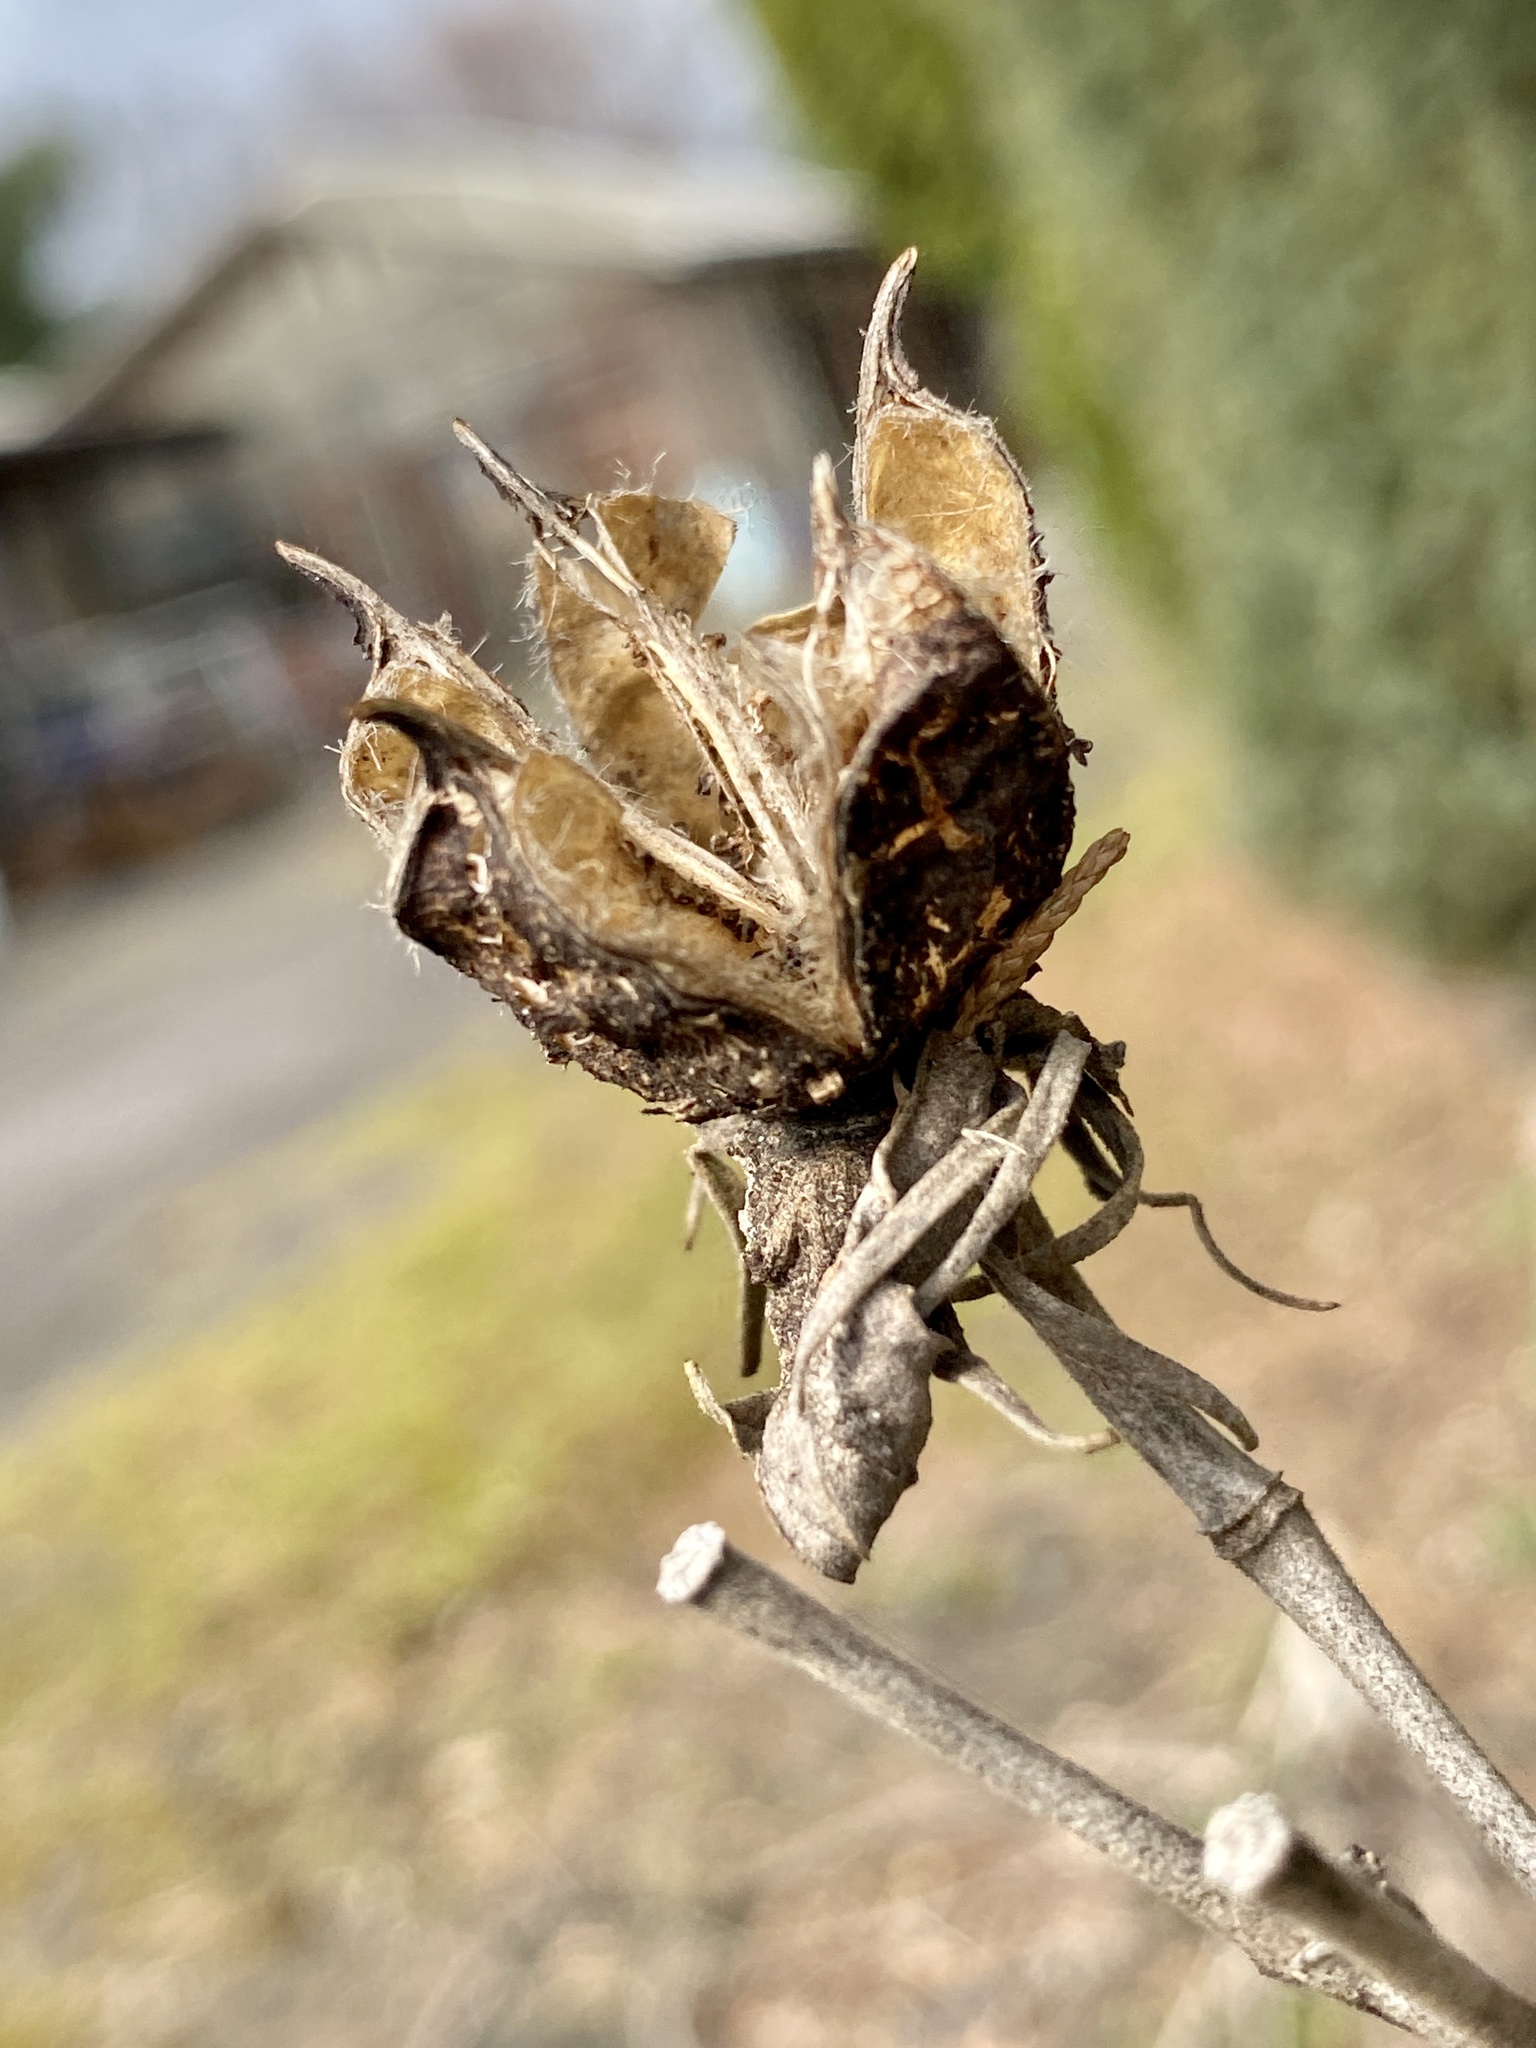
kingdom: Plantae
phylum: Tracheophyta
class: Magnoliopsida
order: Malvales
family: Malvaceae
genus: Hibiscus
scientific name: Hibiscus moscheutos
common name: Common rose-mallow
